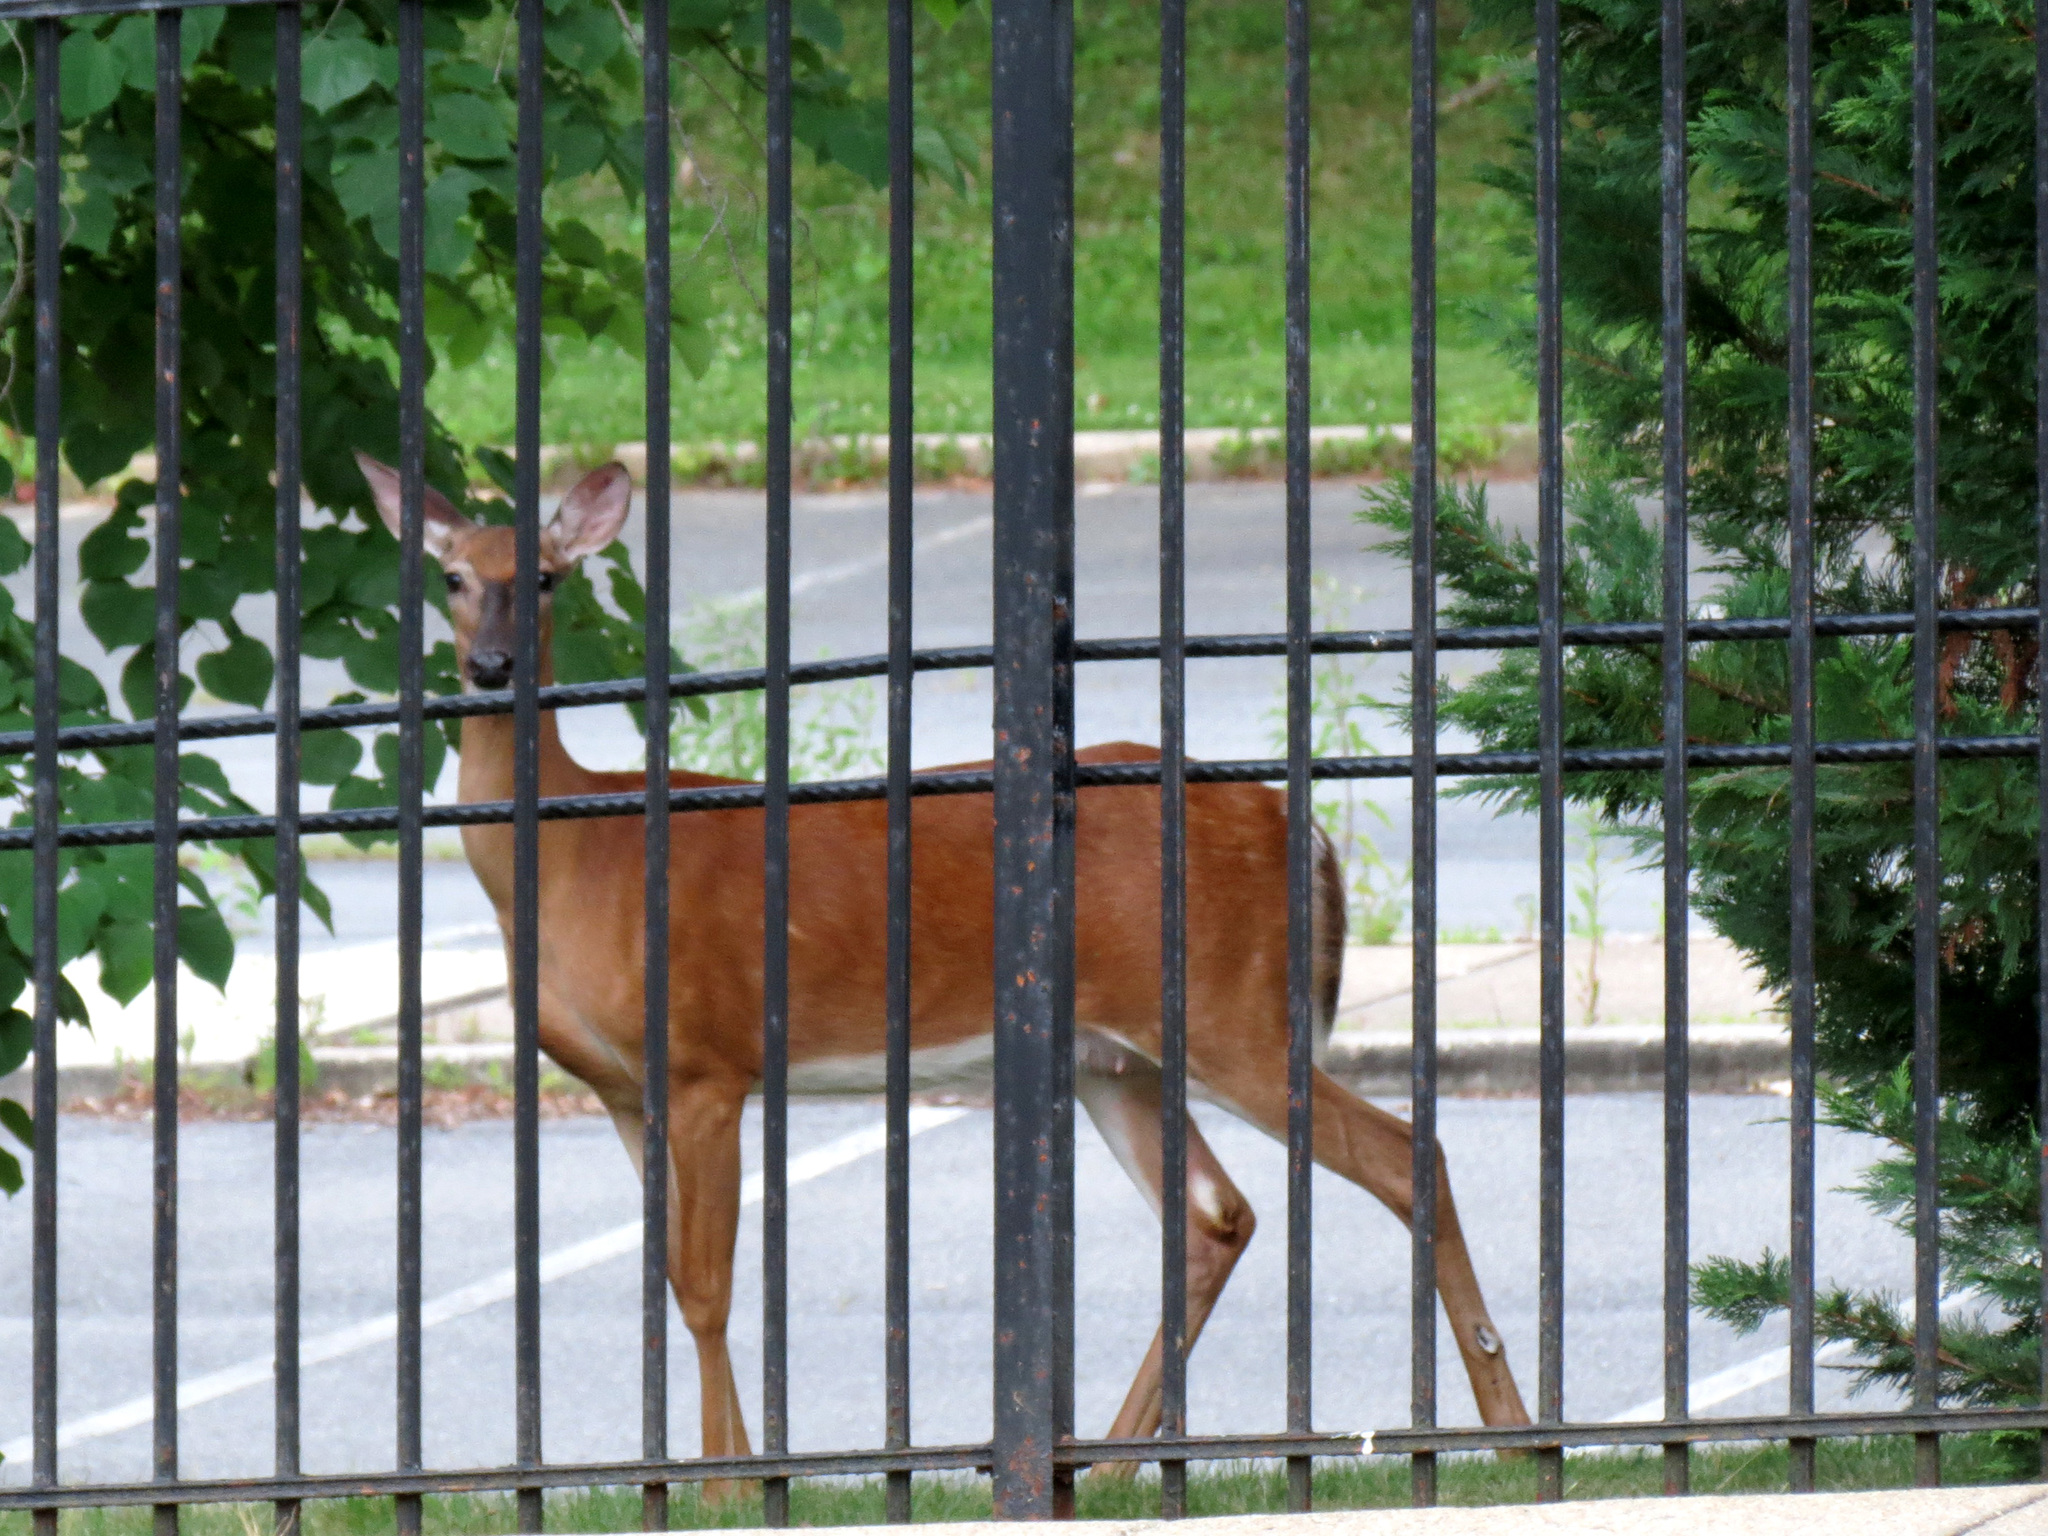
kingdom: Animalia
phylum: Chordata
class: Mammalia
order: Artiodactyla
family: Cervidae
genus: Odocoileus
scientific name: Odocoileus virginianus
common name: White-tailed deer
